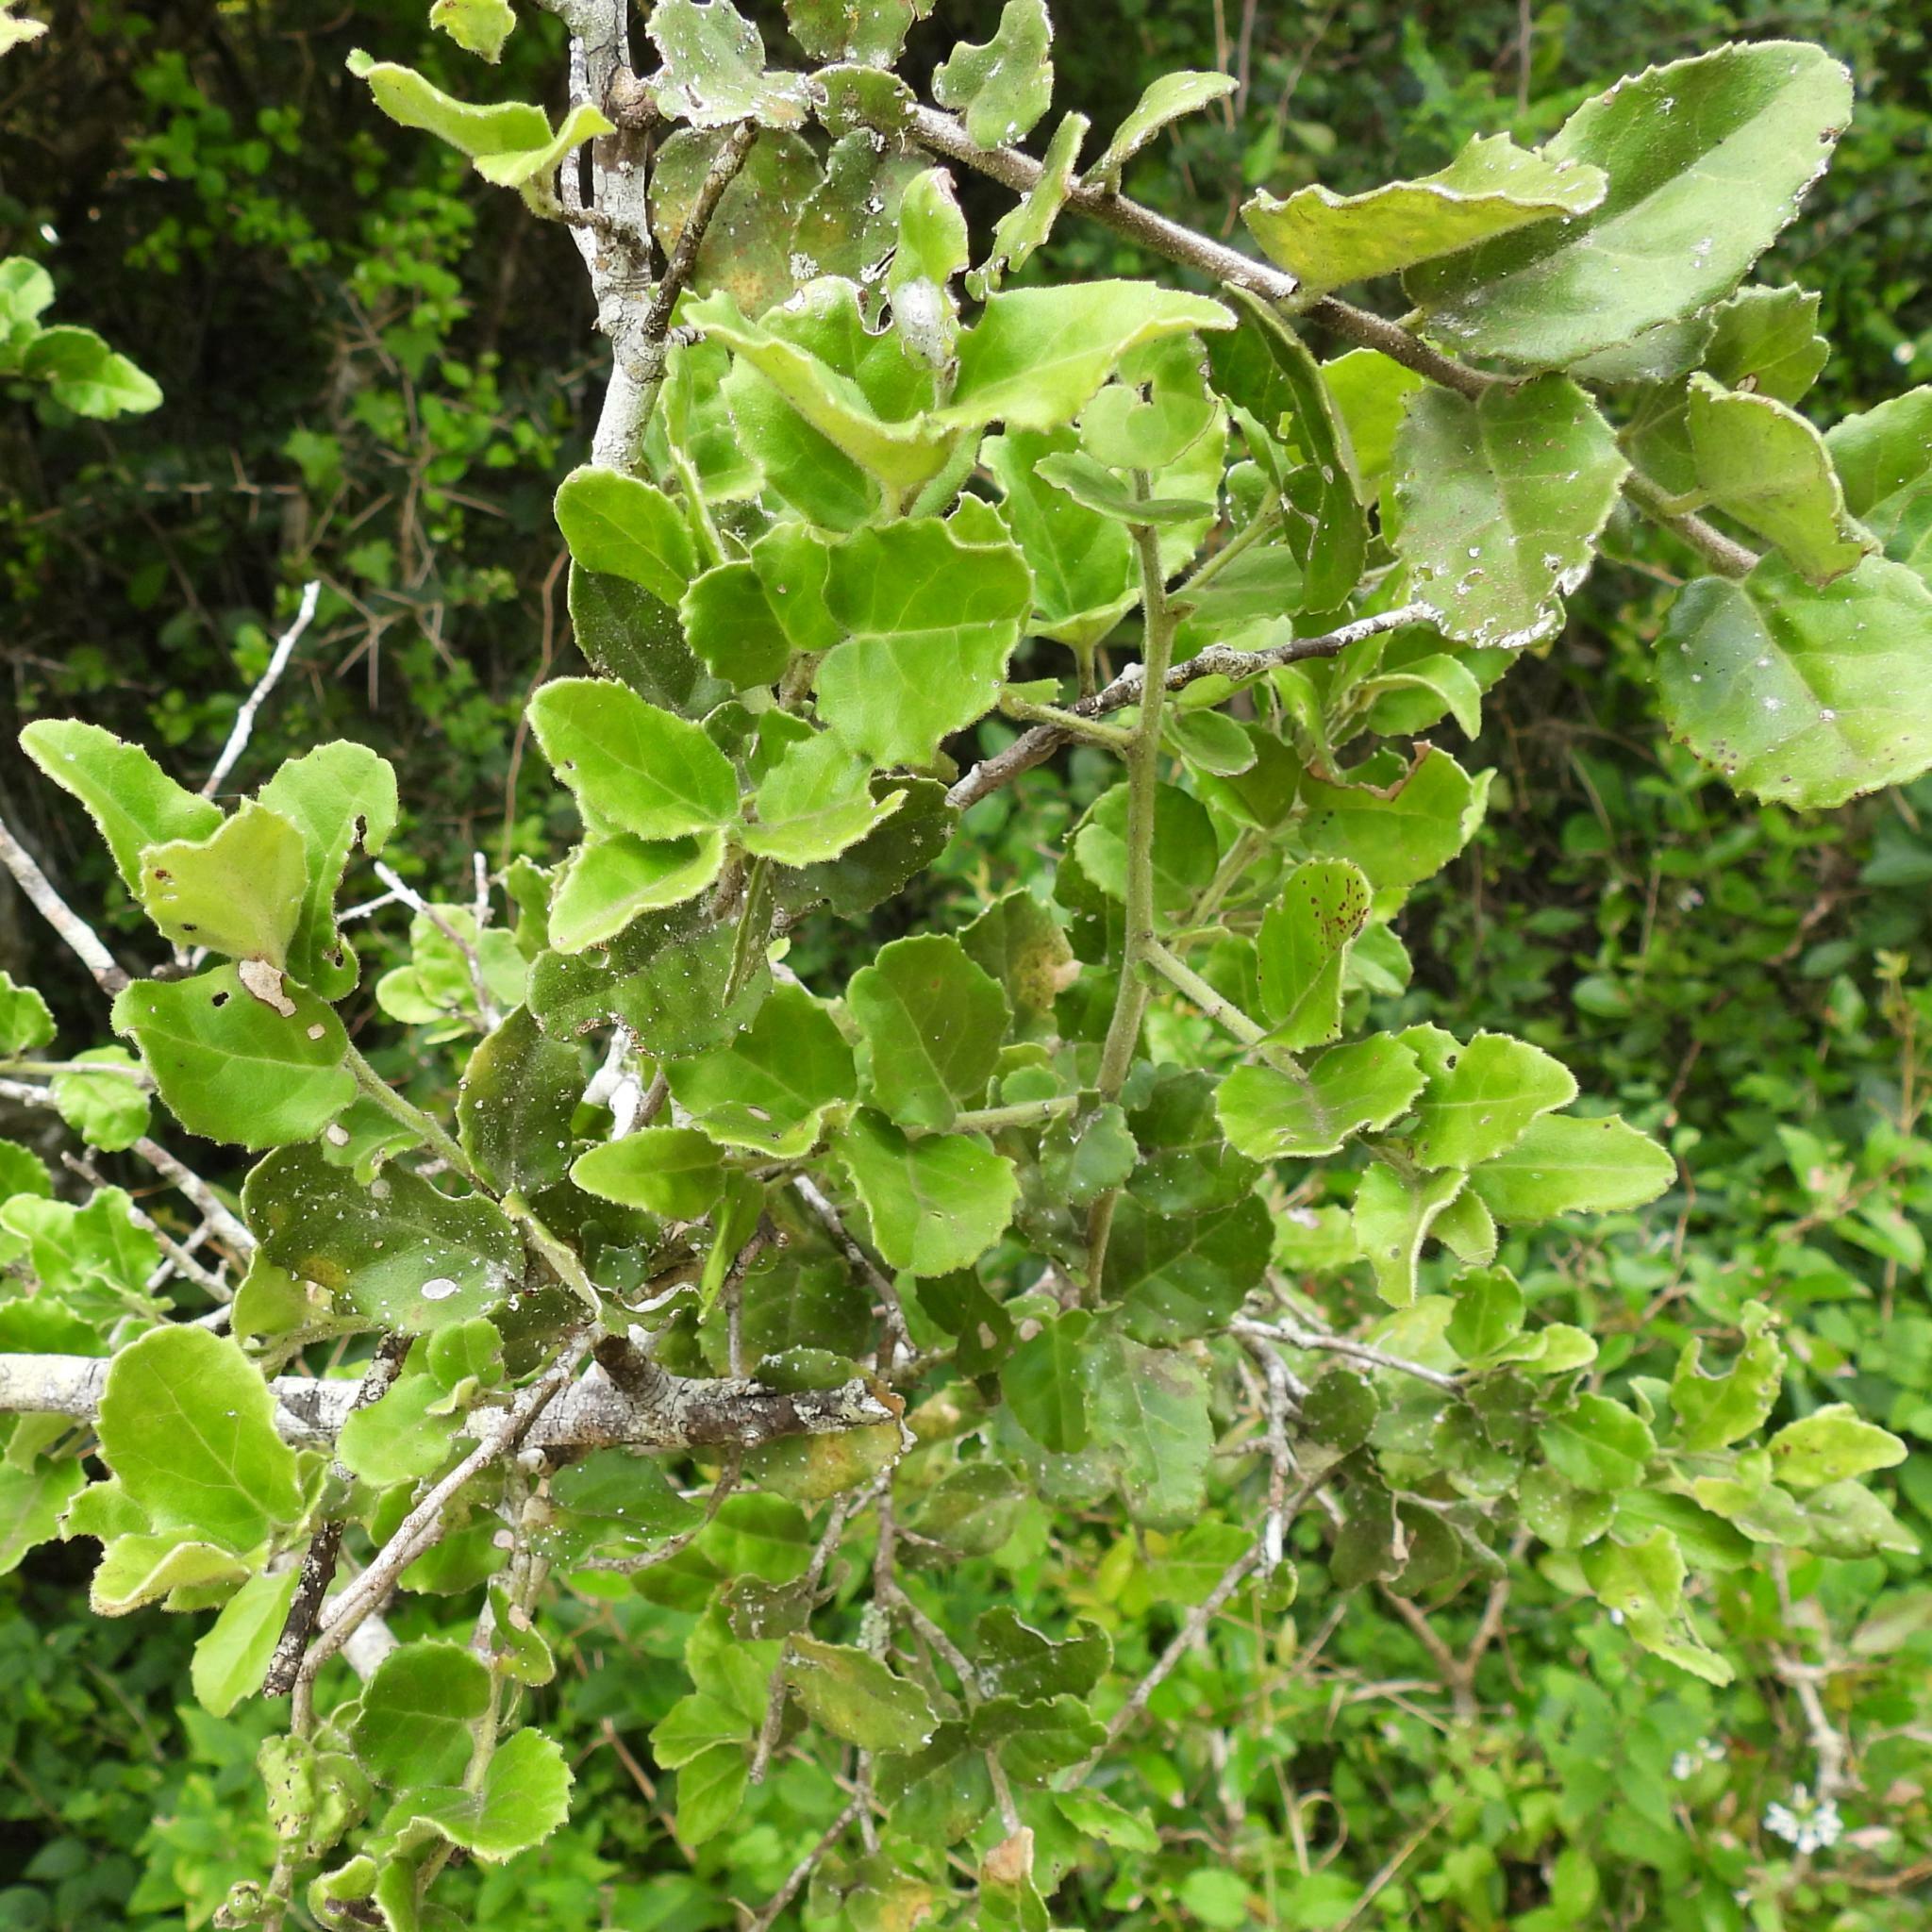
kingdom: Plantae
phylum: Tracheophyta
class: Magnoliopsida
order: Celastrales
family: Celastraceae
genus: Mystroxylon
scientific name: Mystroxylon aethiopicum
